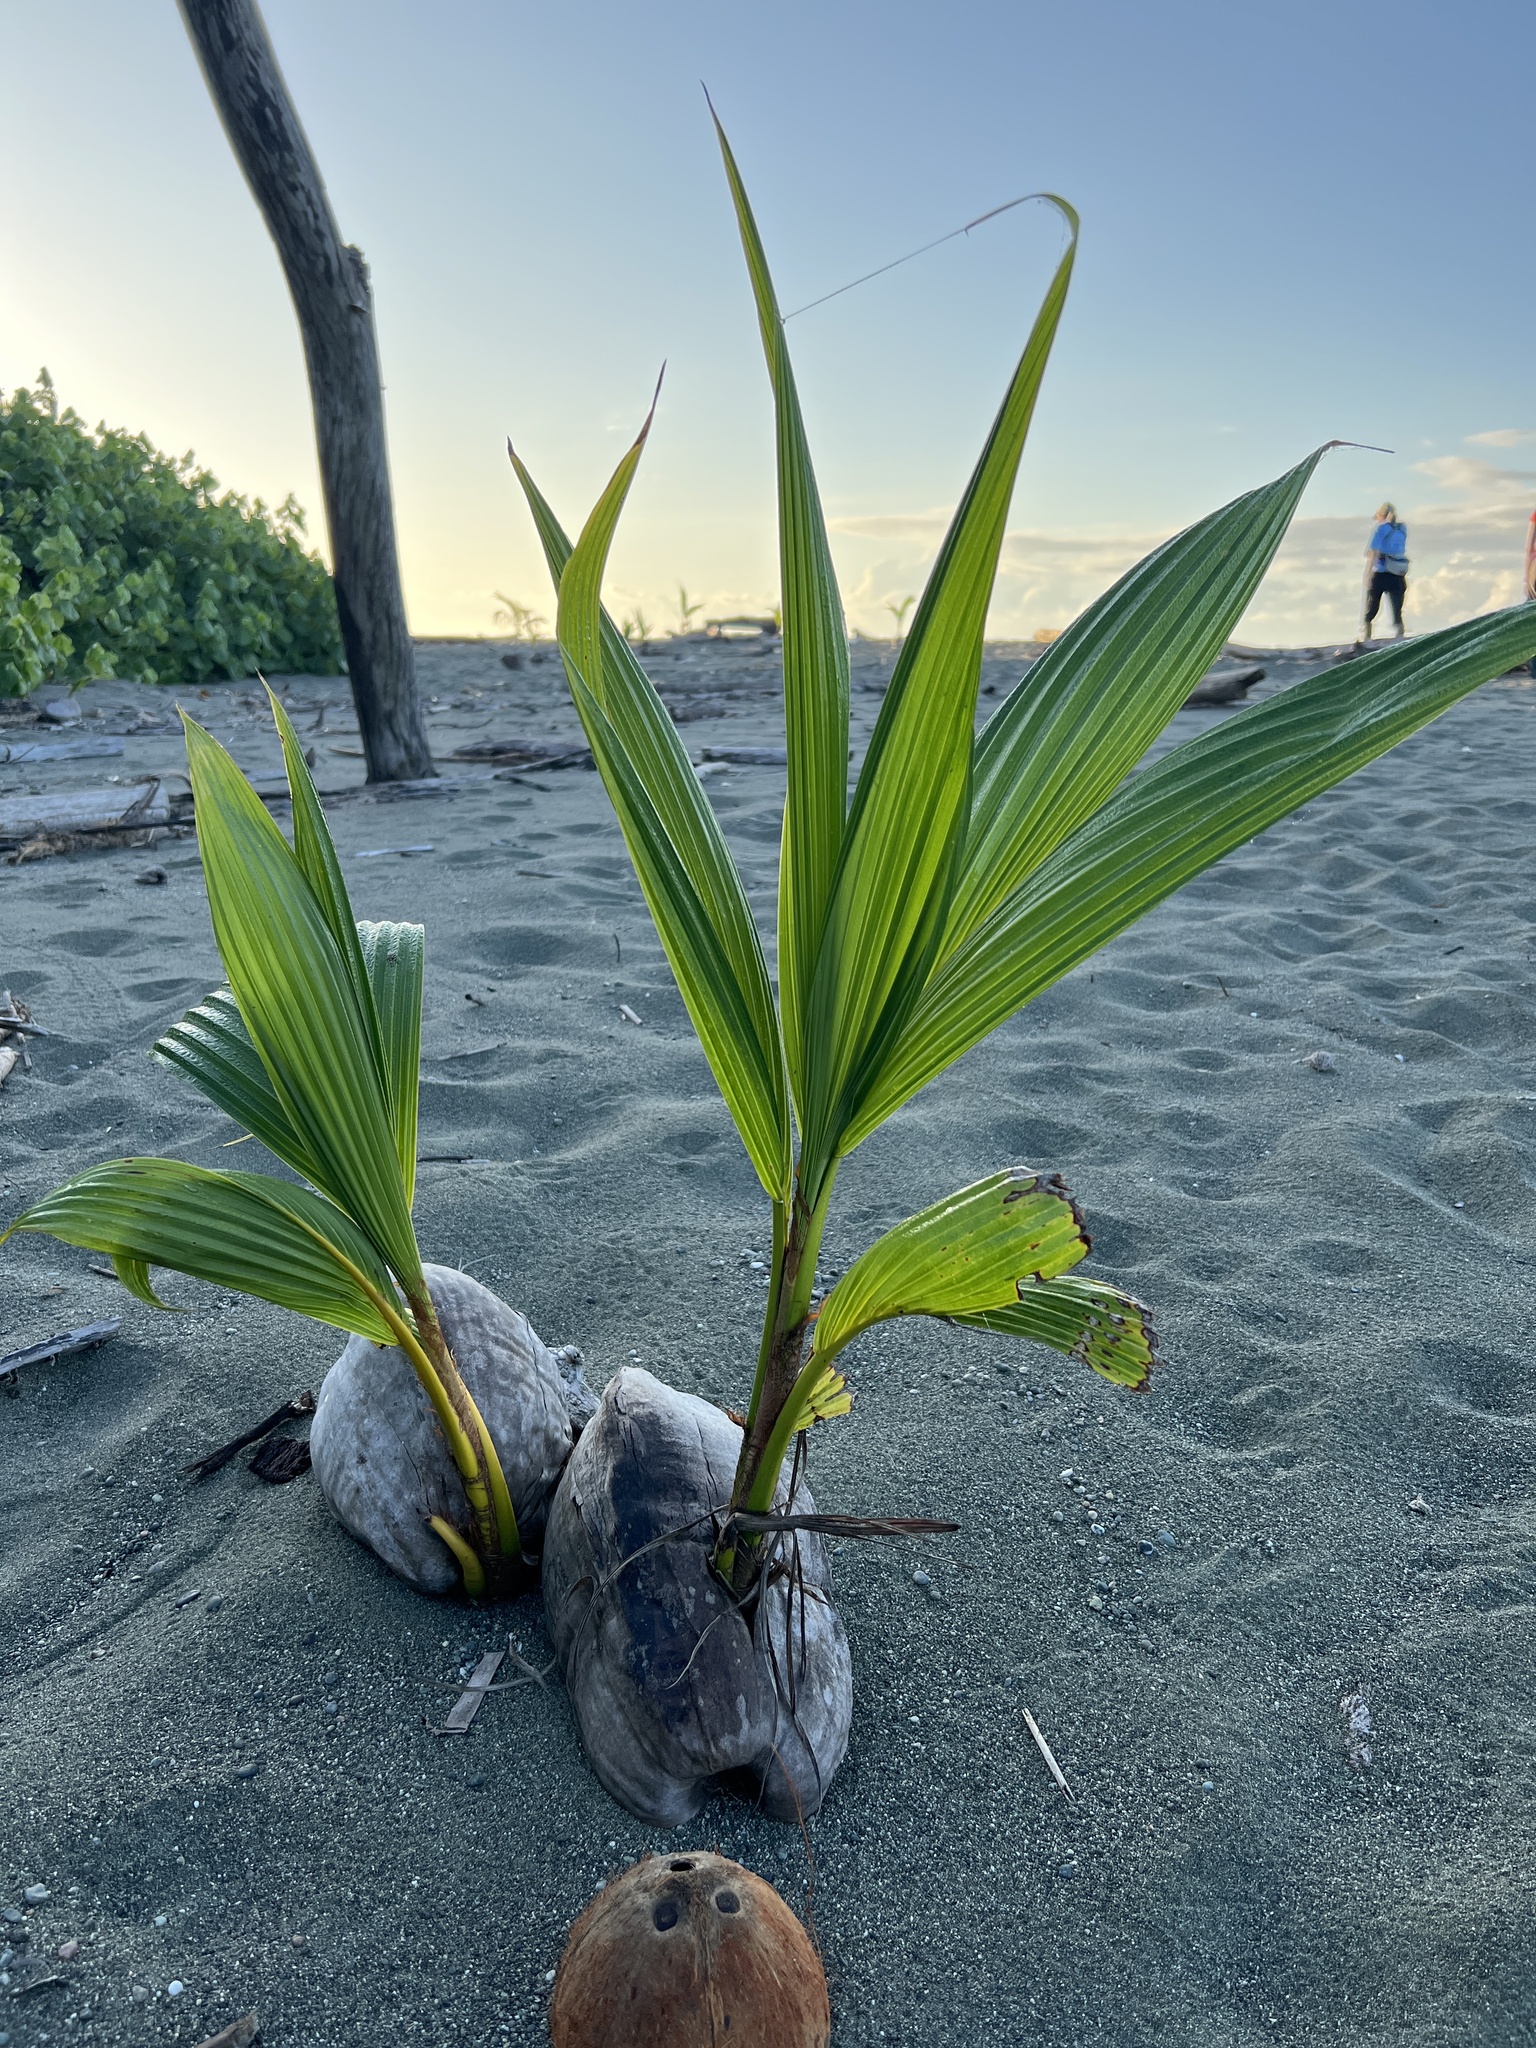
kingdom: Plantae
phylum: Tracheophyta
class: Liliopsida
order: Arecales
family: Arecaceae
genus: Cocos
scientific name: Cocos nucifera
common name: Coconut palm
